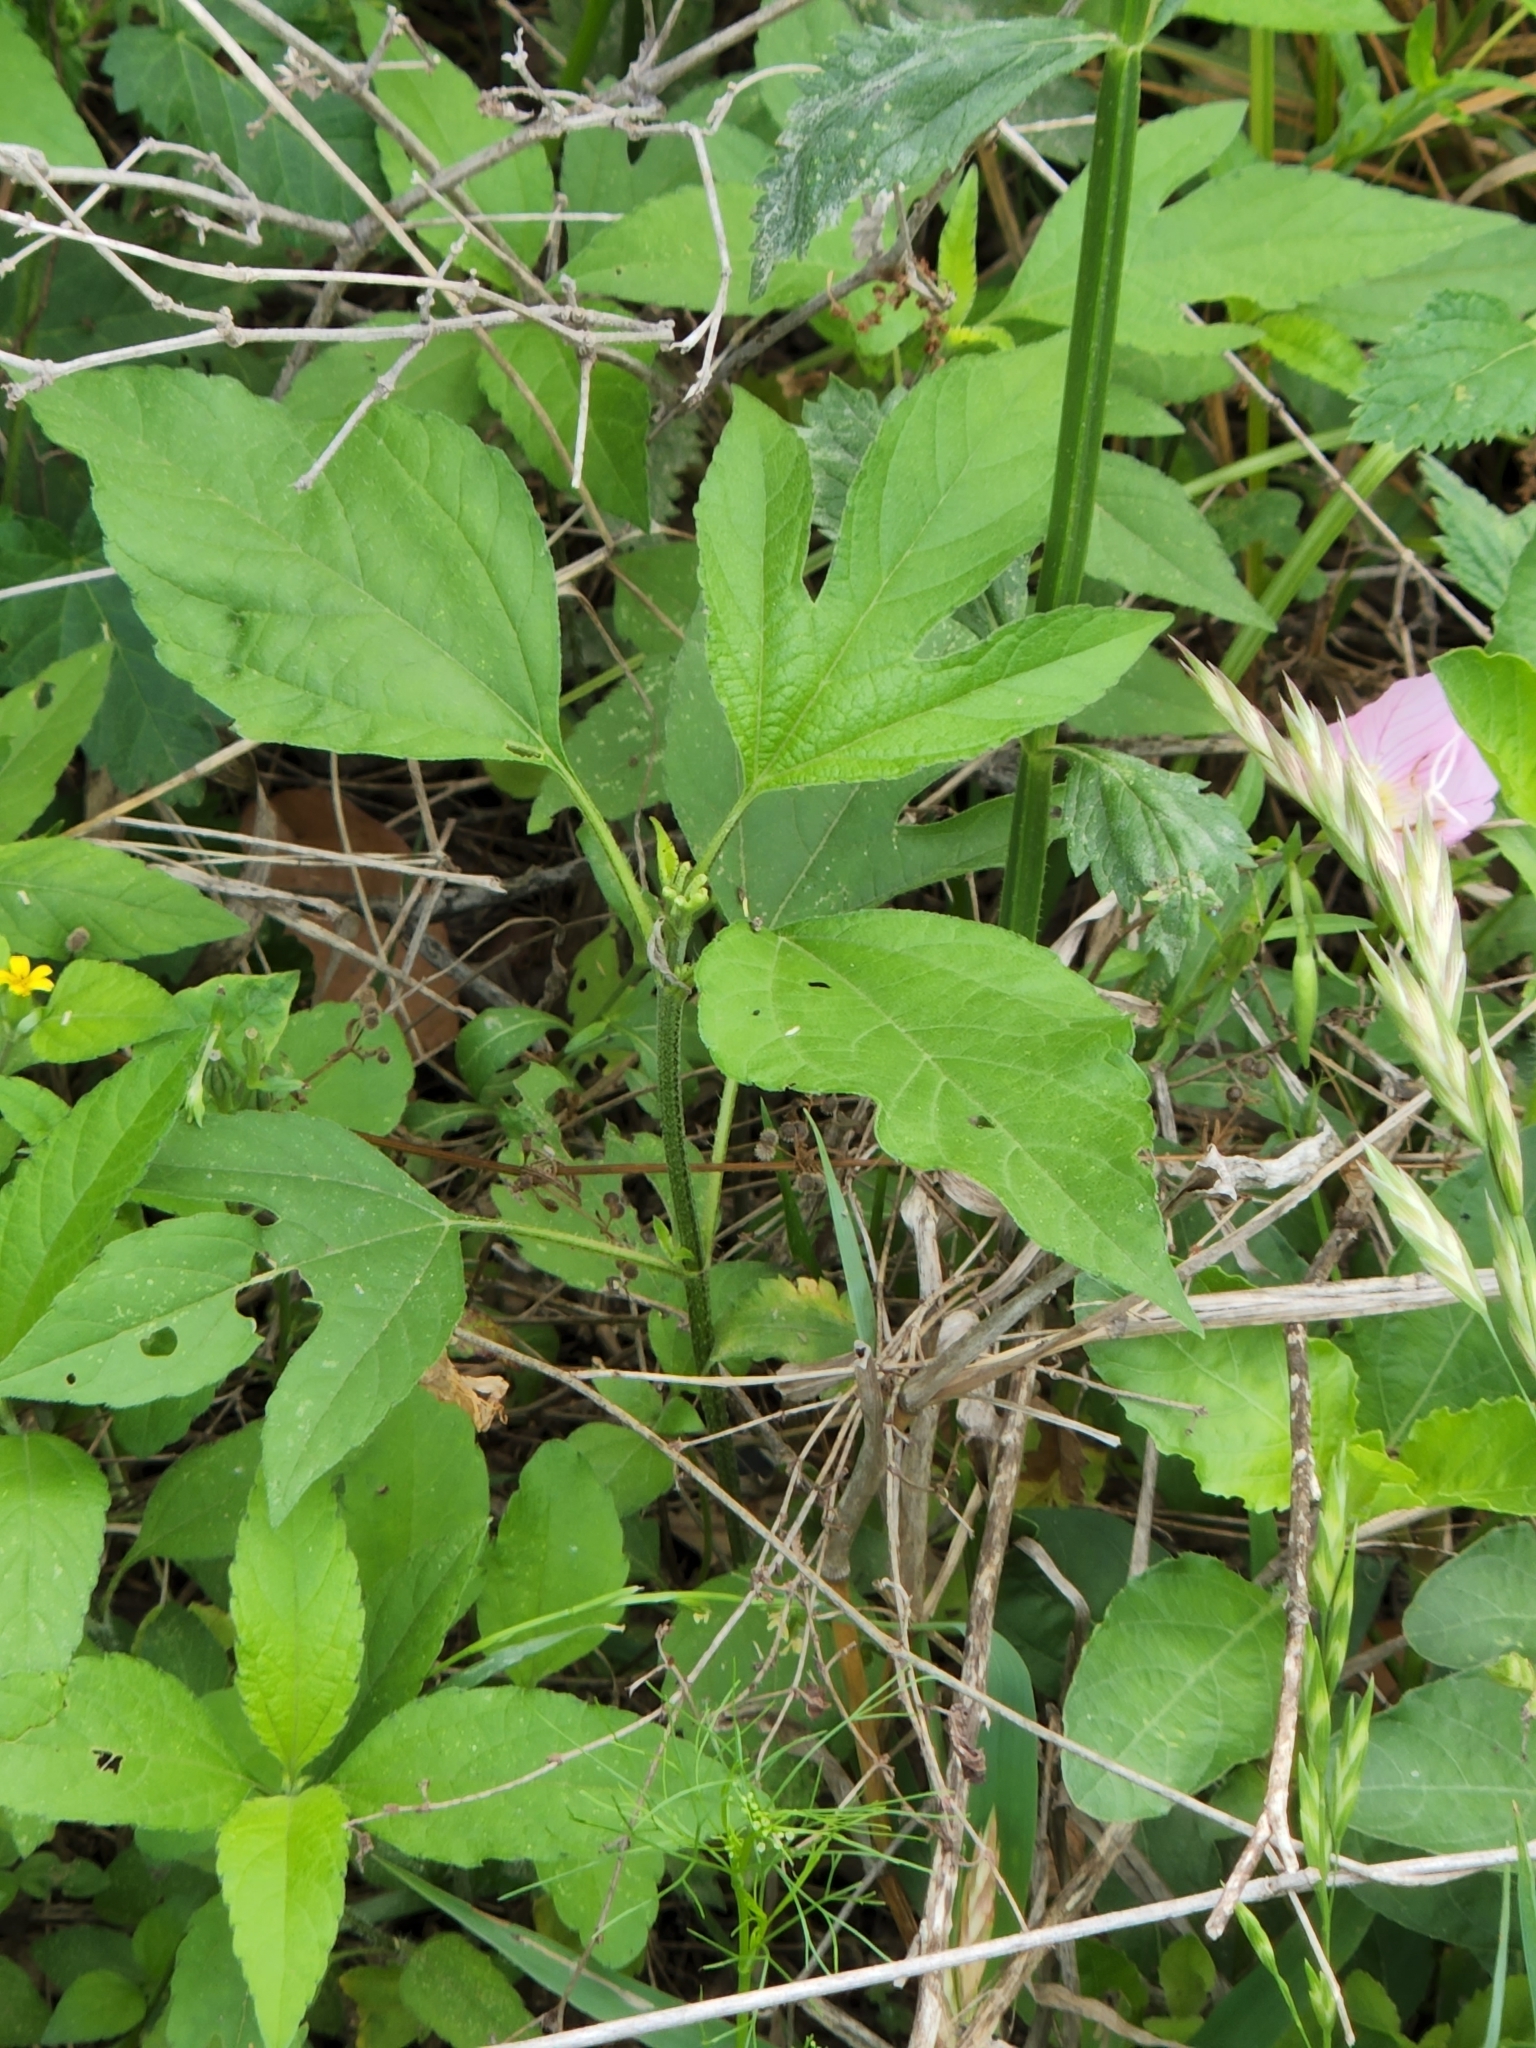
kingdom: Plantae
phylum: Tracheophyta
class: Magnoliopsida
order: Asterales
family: Asteraceae
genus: Ambrosia
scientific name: Ambrosia trifida
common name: Giant ragweed
